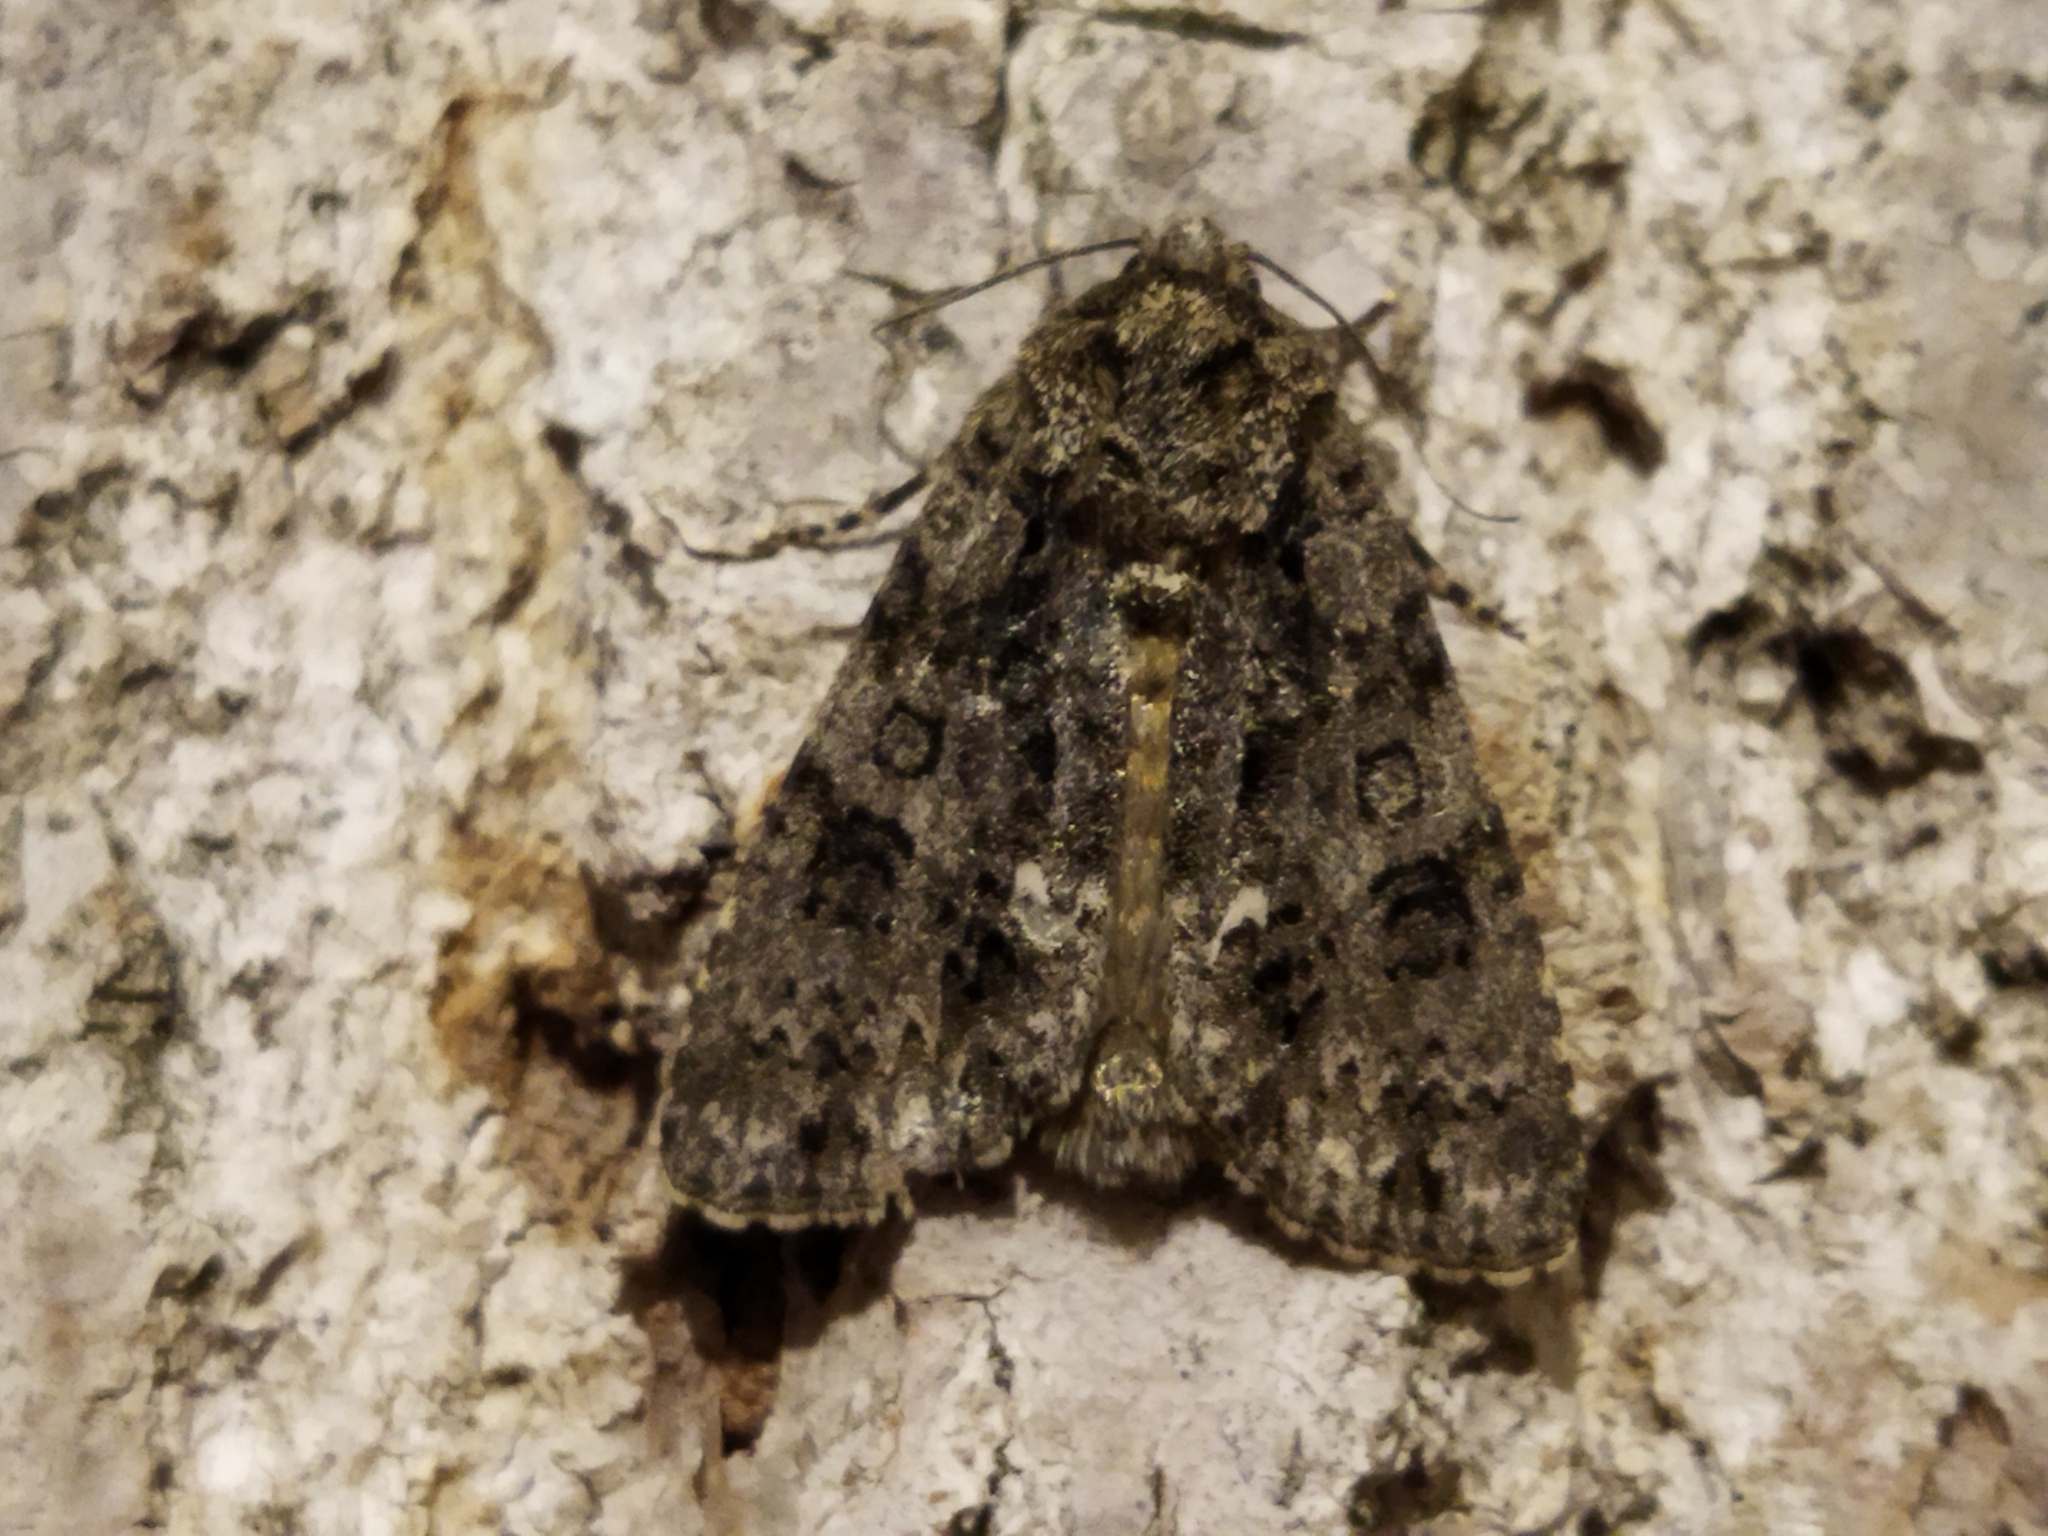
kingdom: Animalia
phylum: Arthropoda
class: Insecta
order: Lepidoptera
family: Noctuidae
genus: Acronicta
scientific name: Acronicta rumicis
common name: Knot grass
